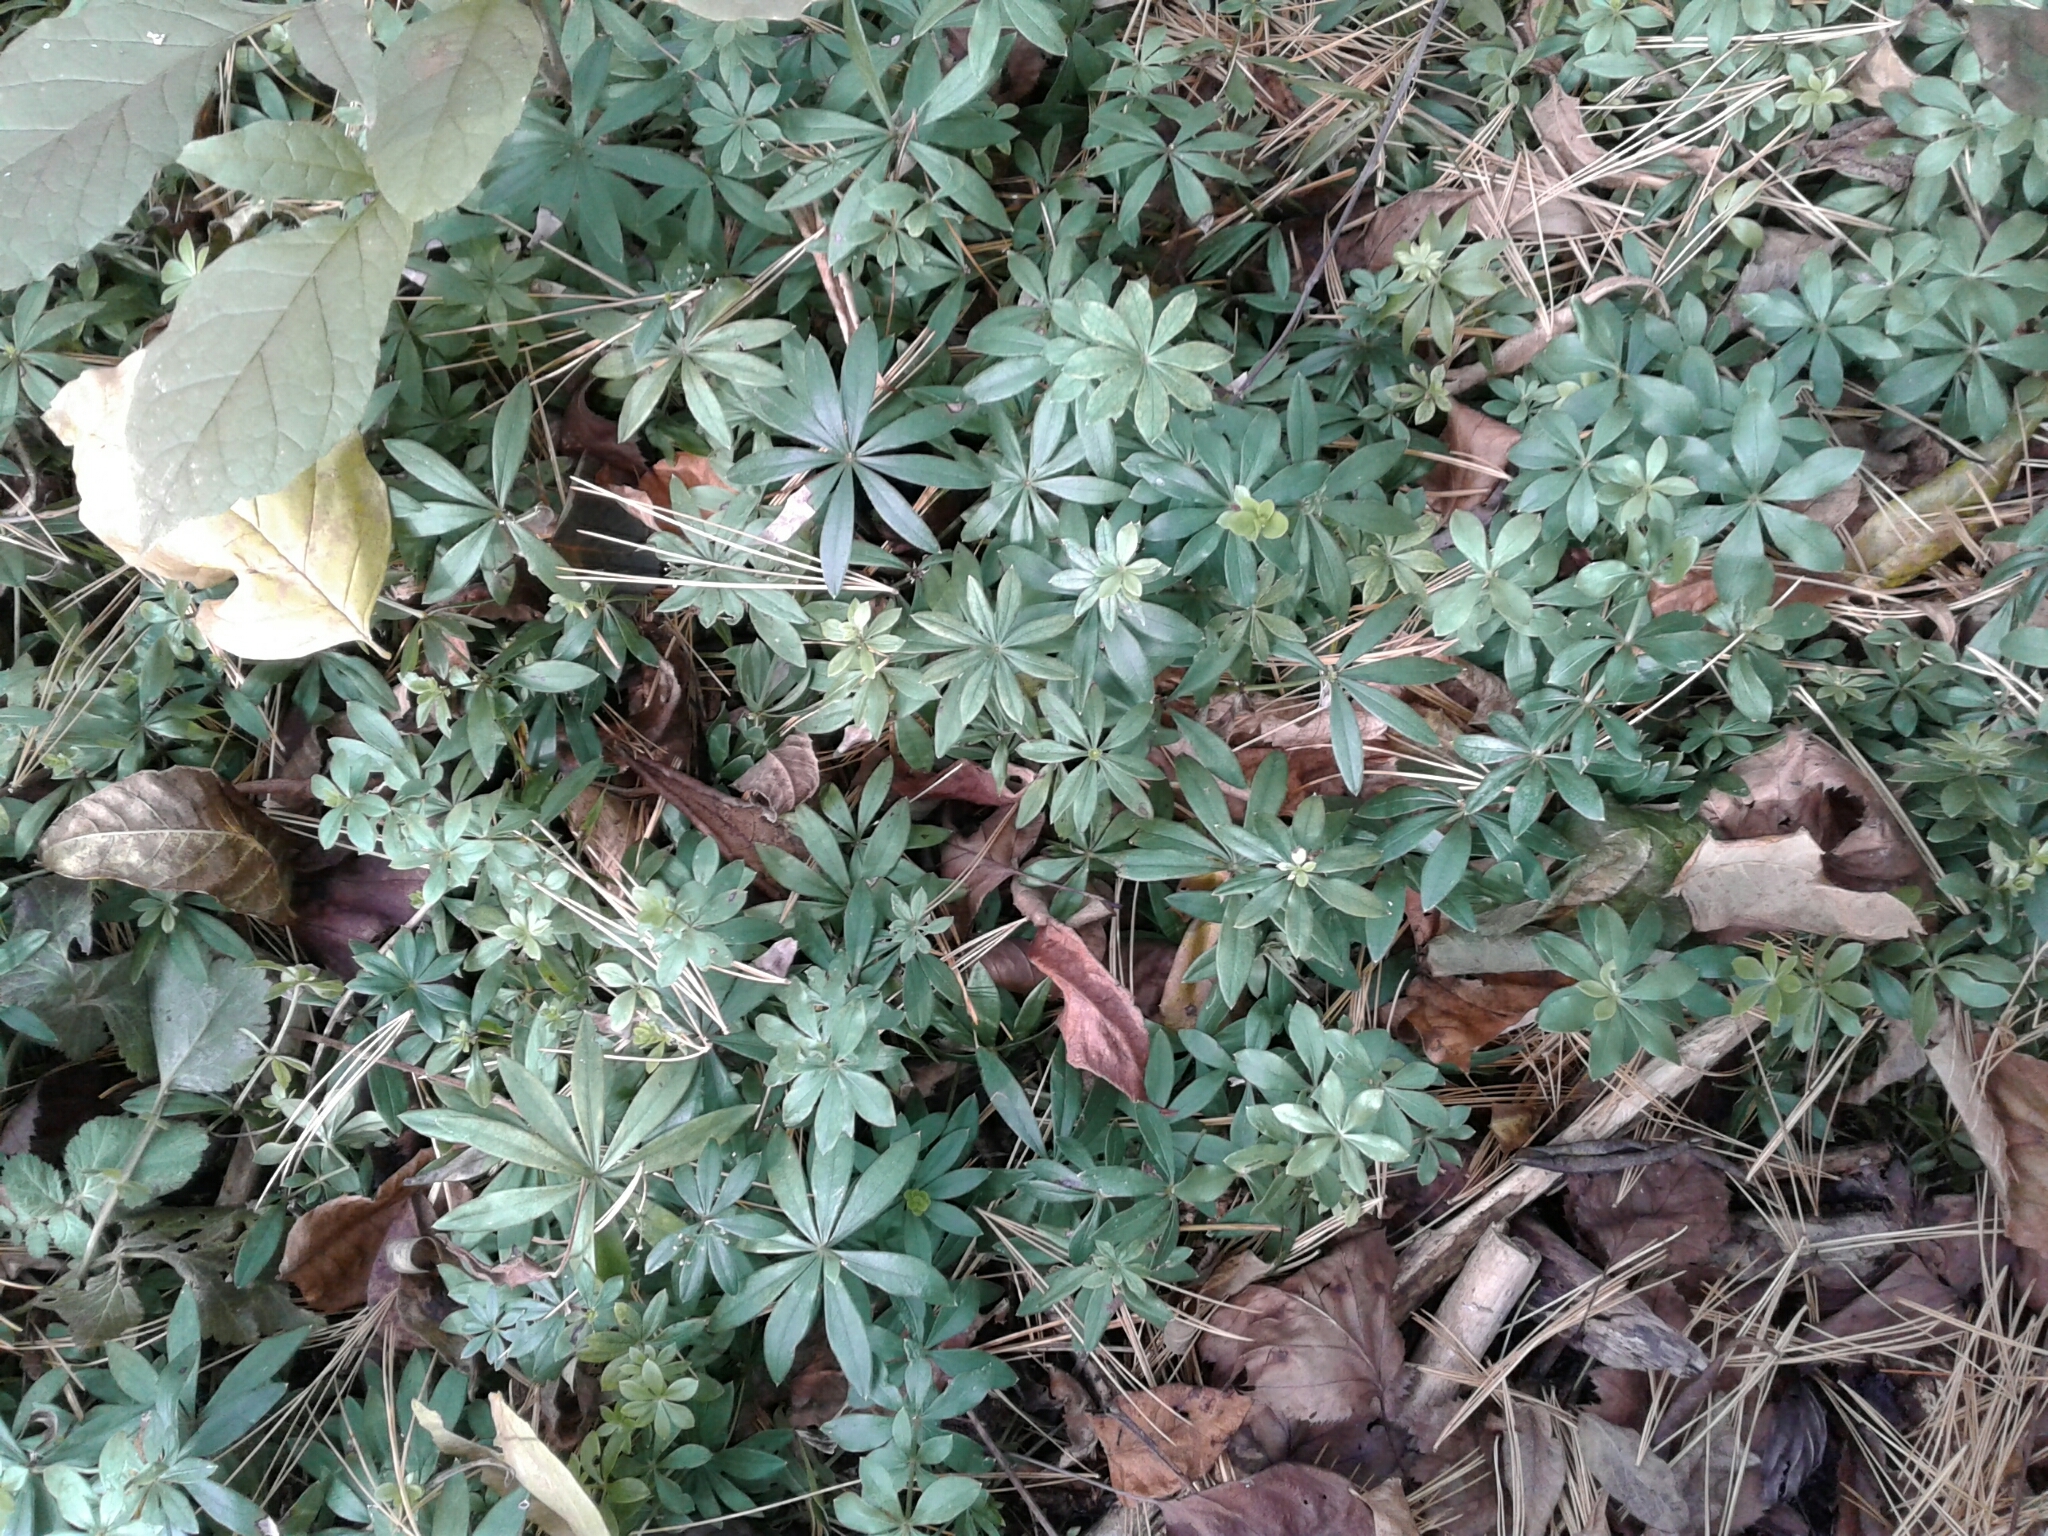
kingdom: Plantae
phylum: Tracheophyta
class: Magnoliopsida
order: Gentianales
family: Rubiaceae
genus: Galium
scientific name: Galium odoratum
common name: Sweet woodruff
